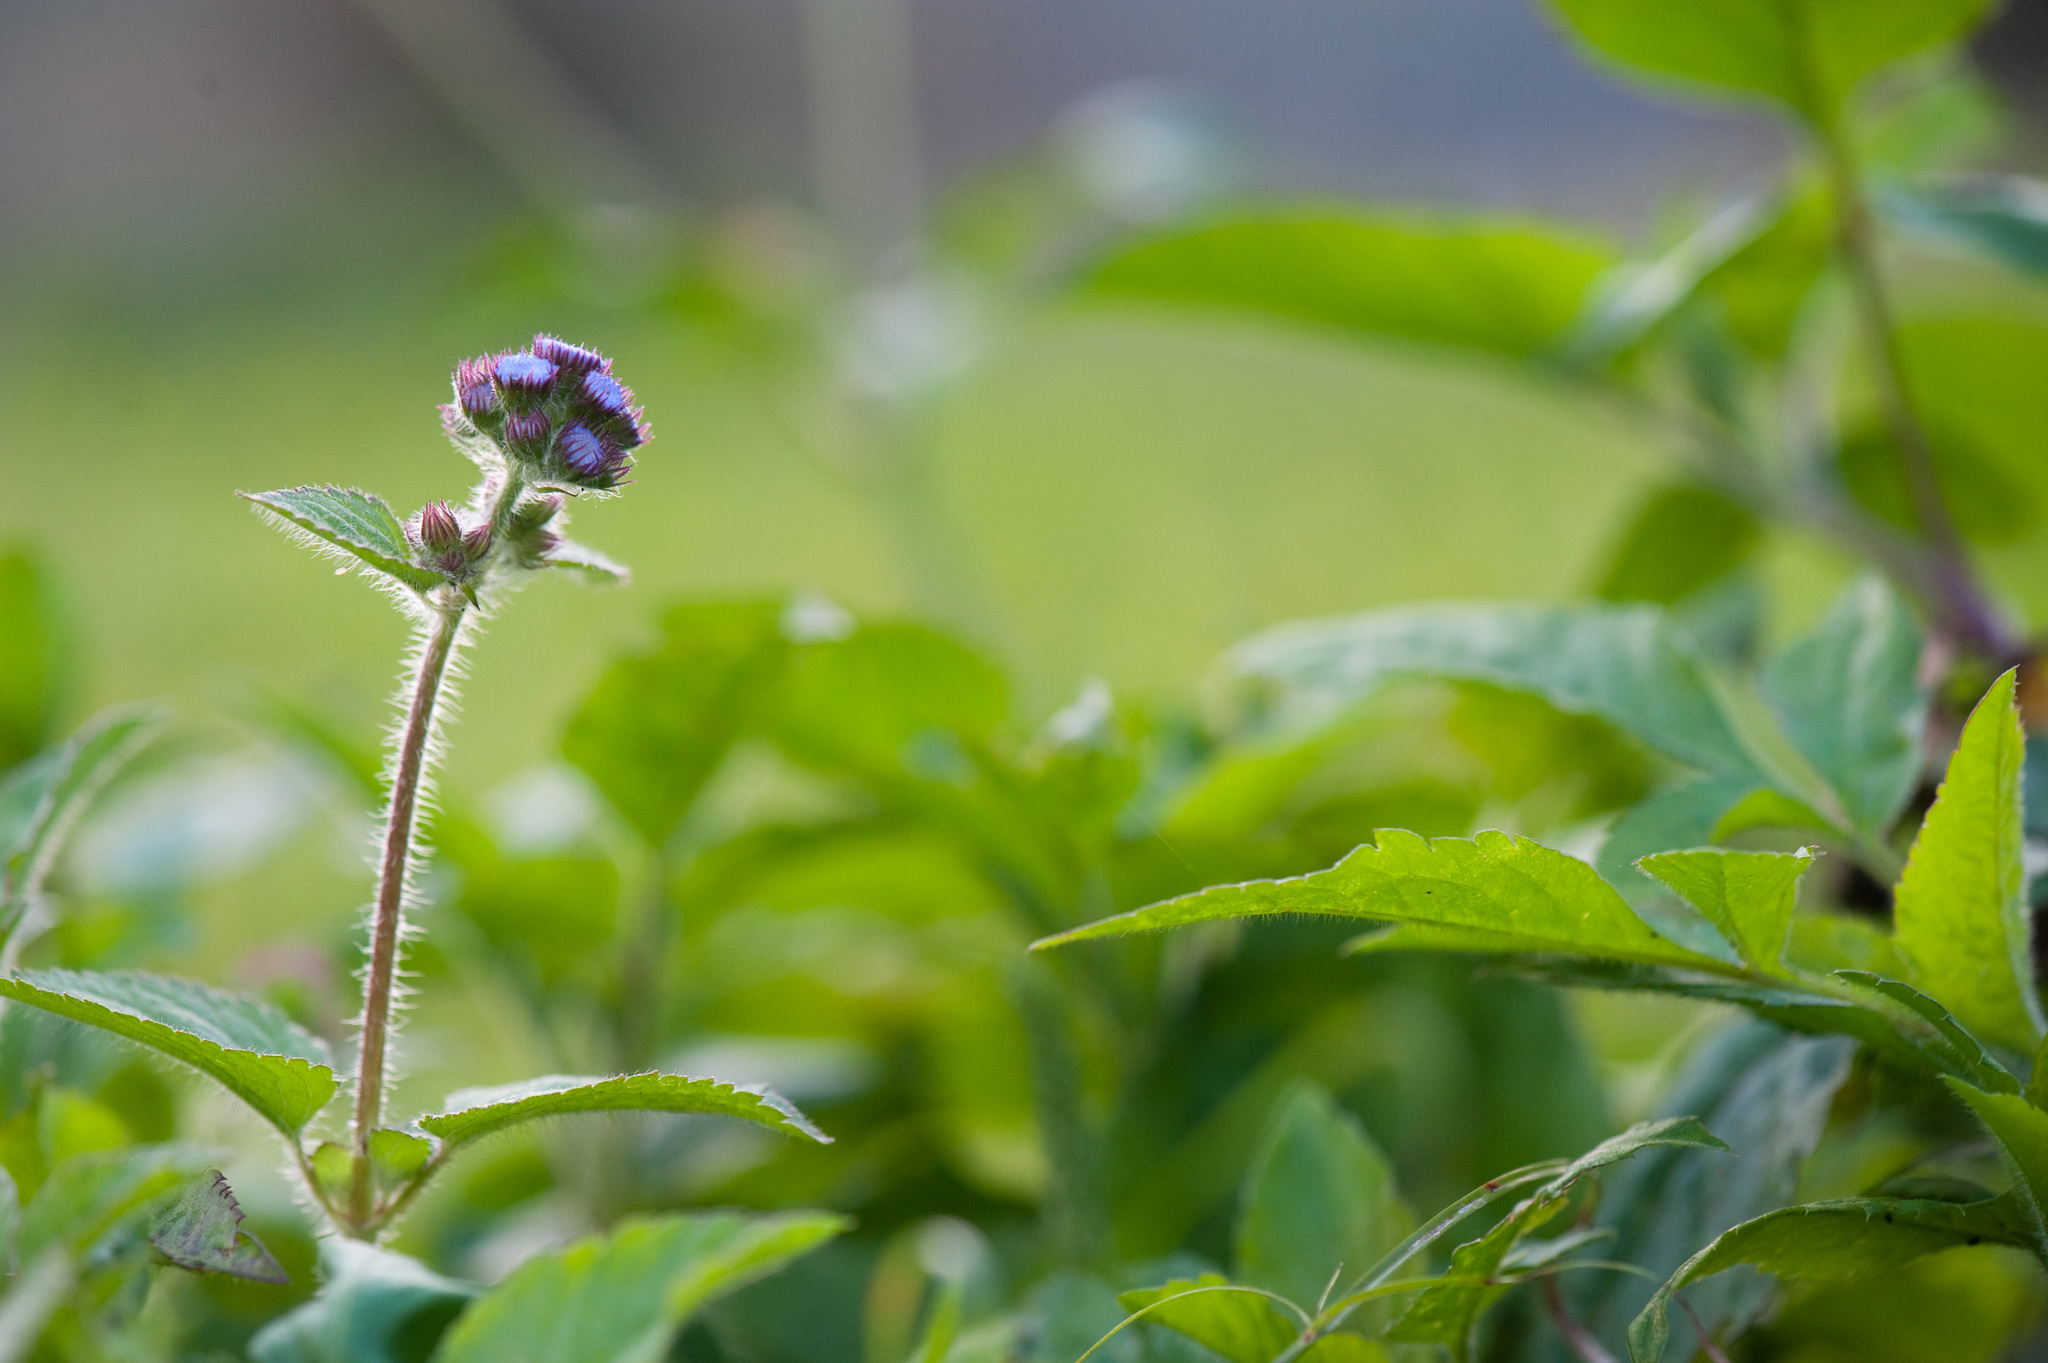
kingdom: Plantae
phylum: Tracheophyta
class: Magnoliopsida
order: Asterales
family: Asteraceae
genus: Ageratum
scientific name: Ageratum houstonianum
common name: Bluemink
